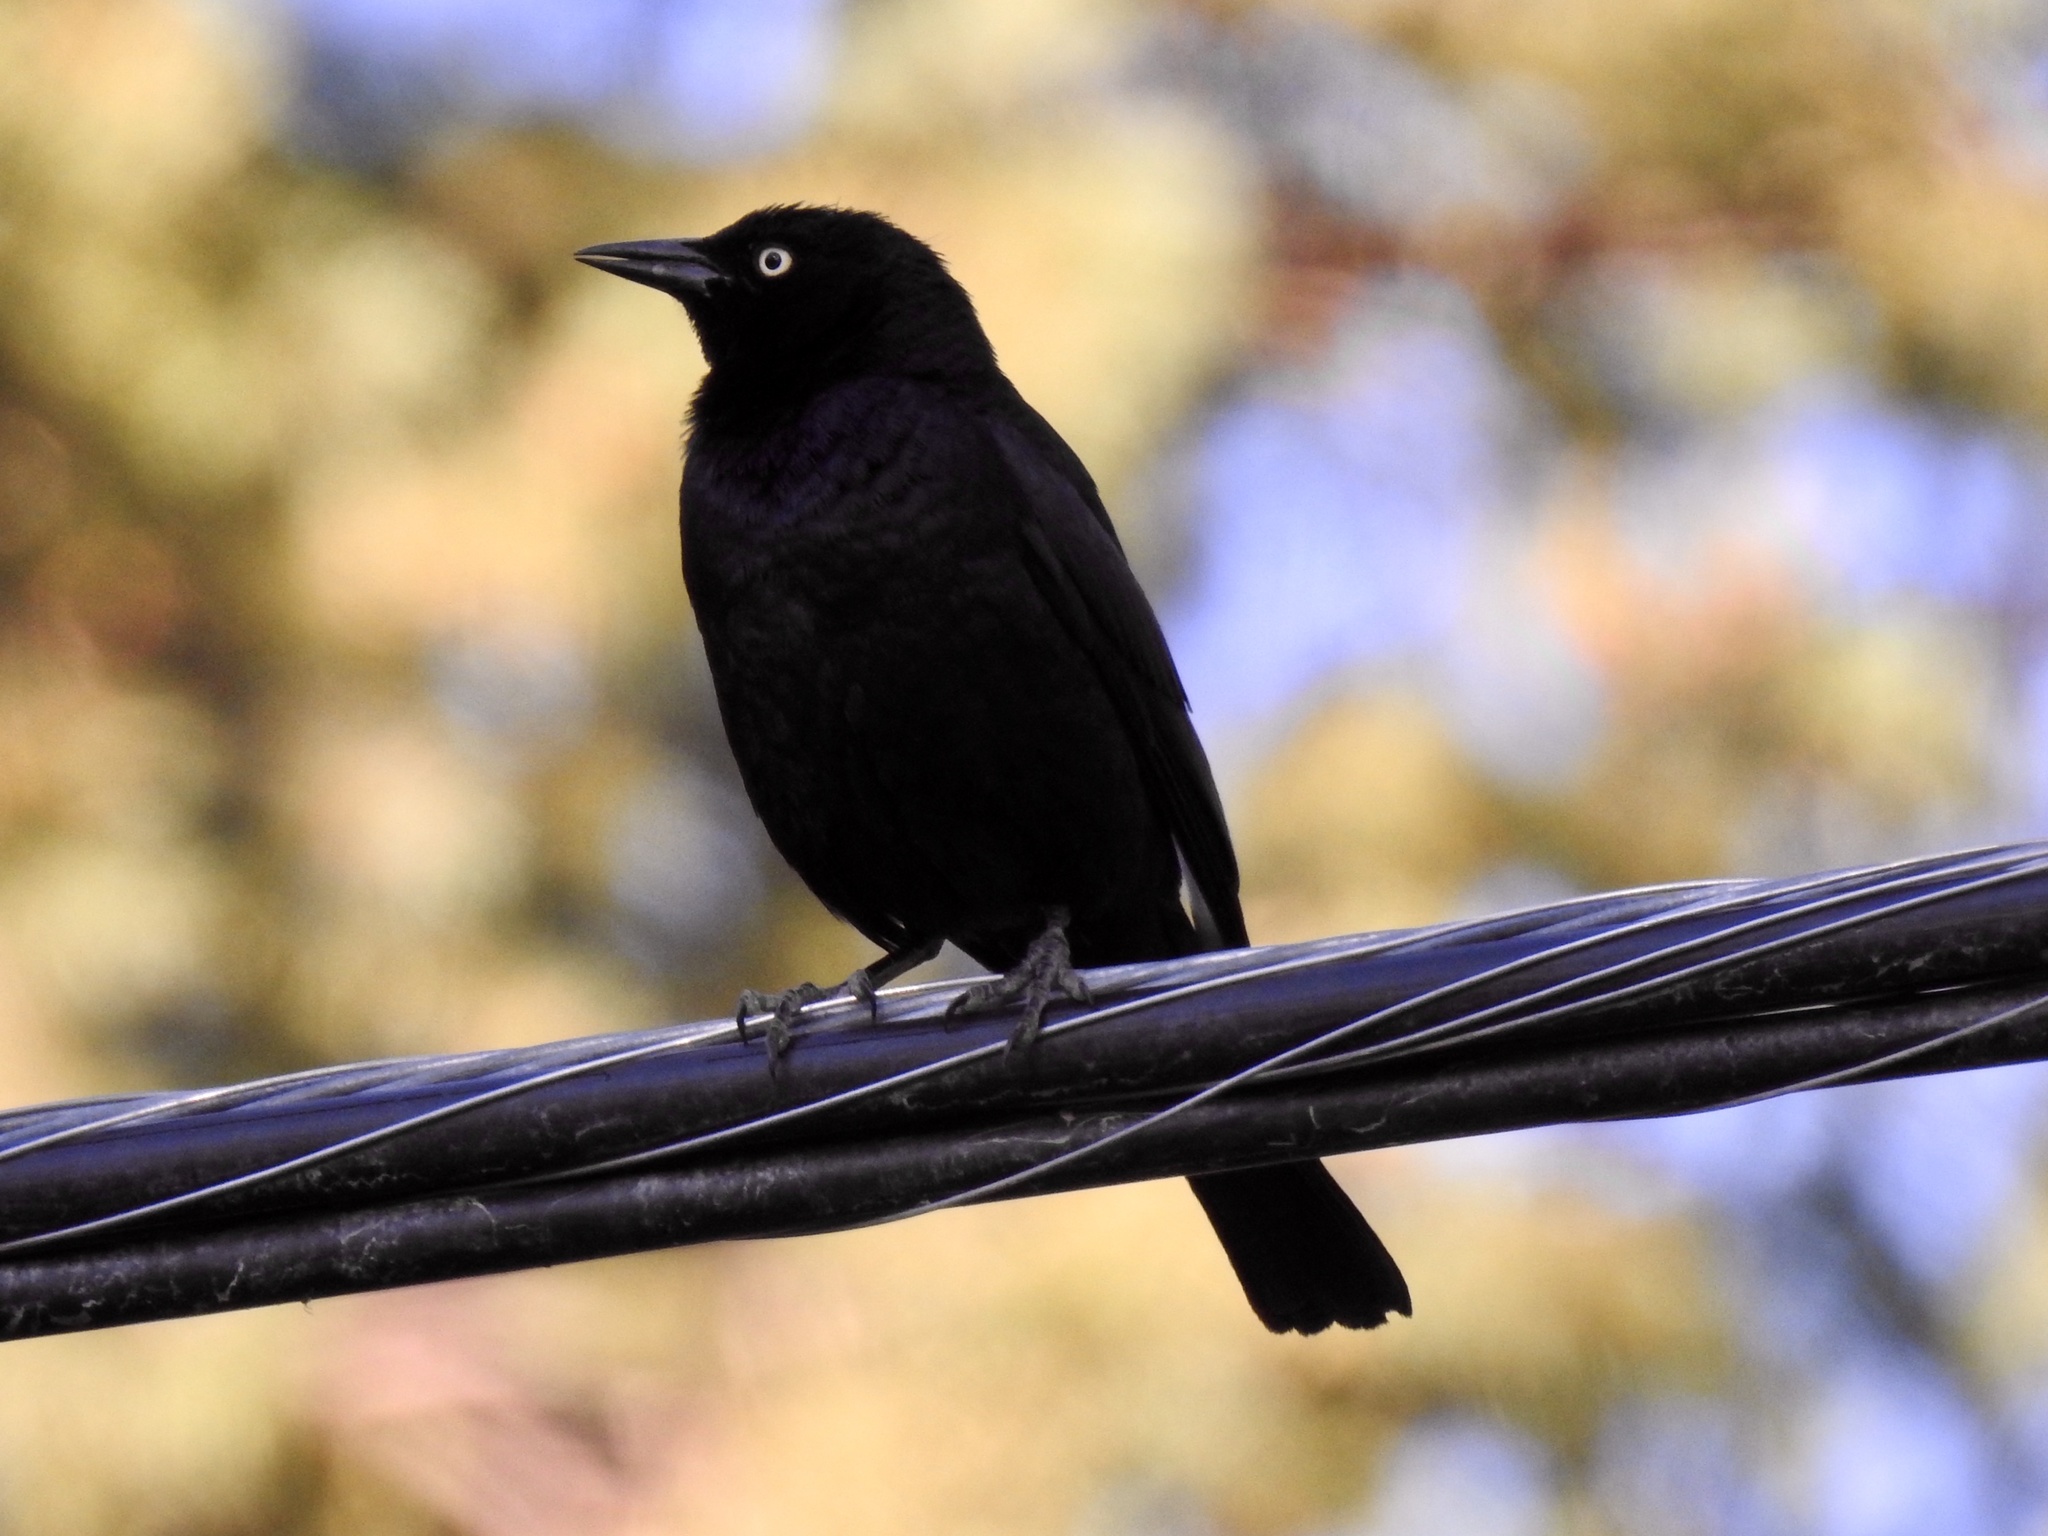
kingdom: Animalia
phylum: Chordata
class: Aves
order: Passeriformes
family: Icteridae
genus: Euphagus
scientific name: Euphagus cyanocephalus
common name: Brewer's blackbird
